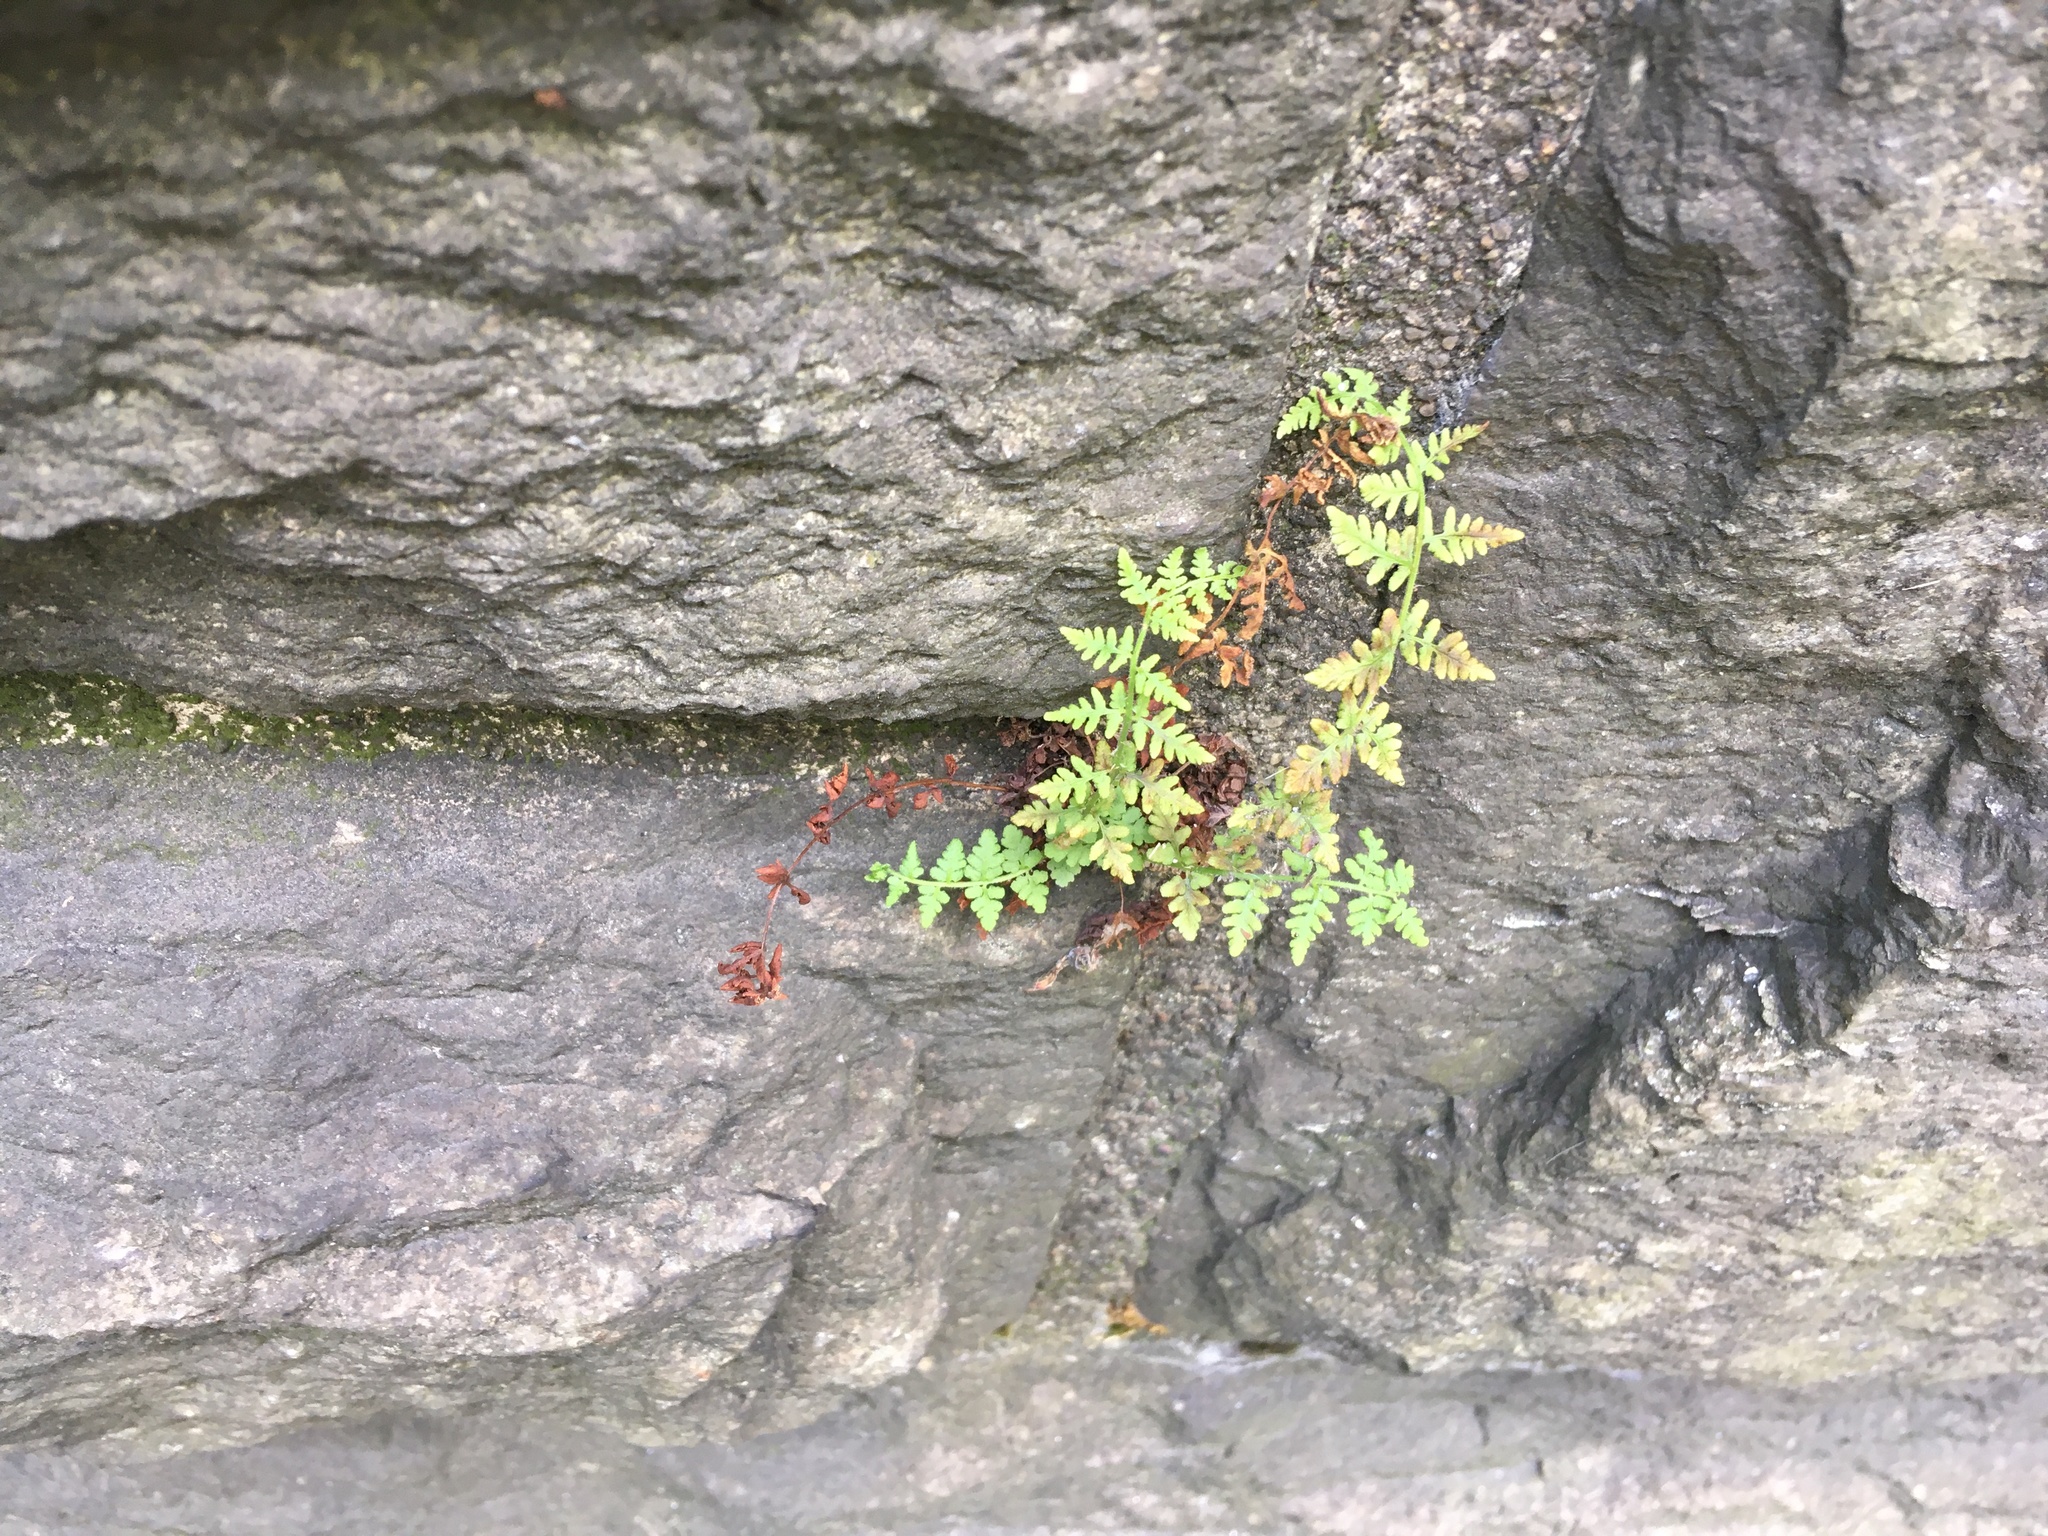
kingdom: Plantae
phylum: Tracheophyta
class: Polypodiopsida
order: Polypodiales
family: Woodsiaceae
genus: Physematium
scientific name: Physematium obtusum
